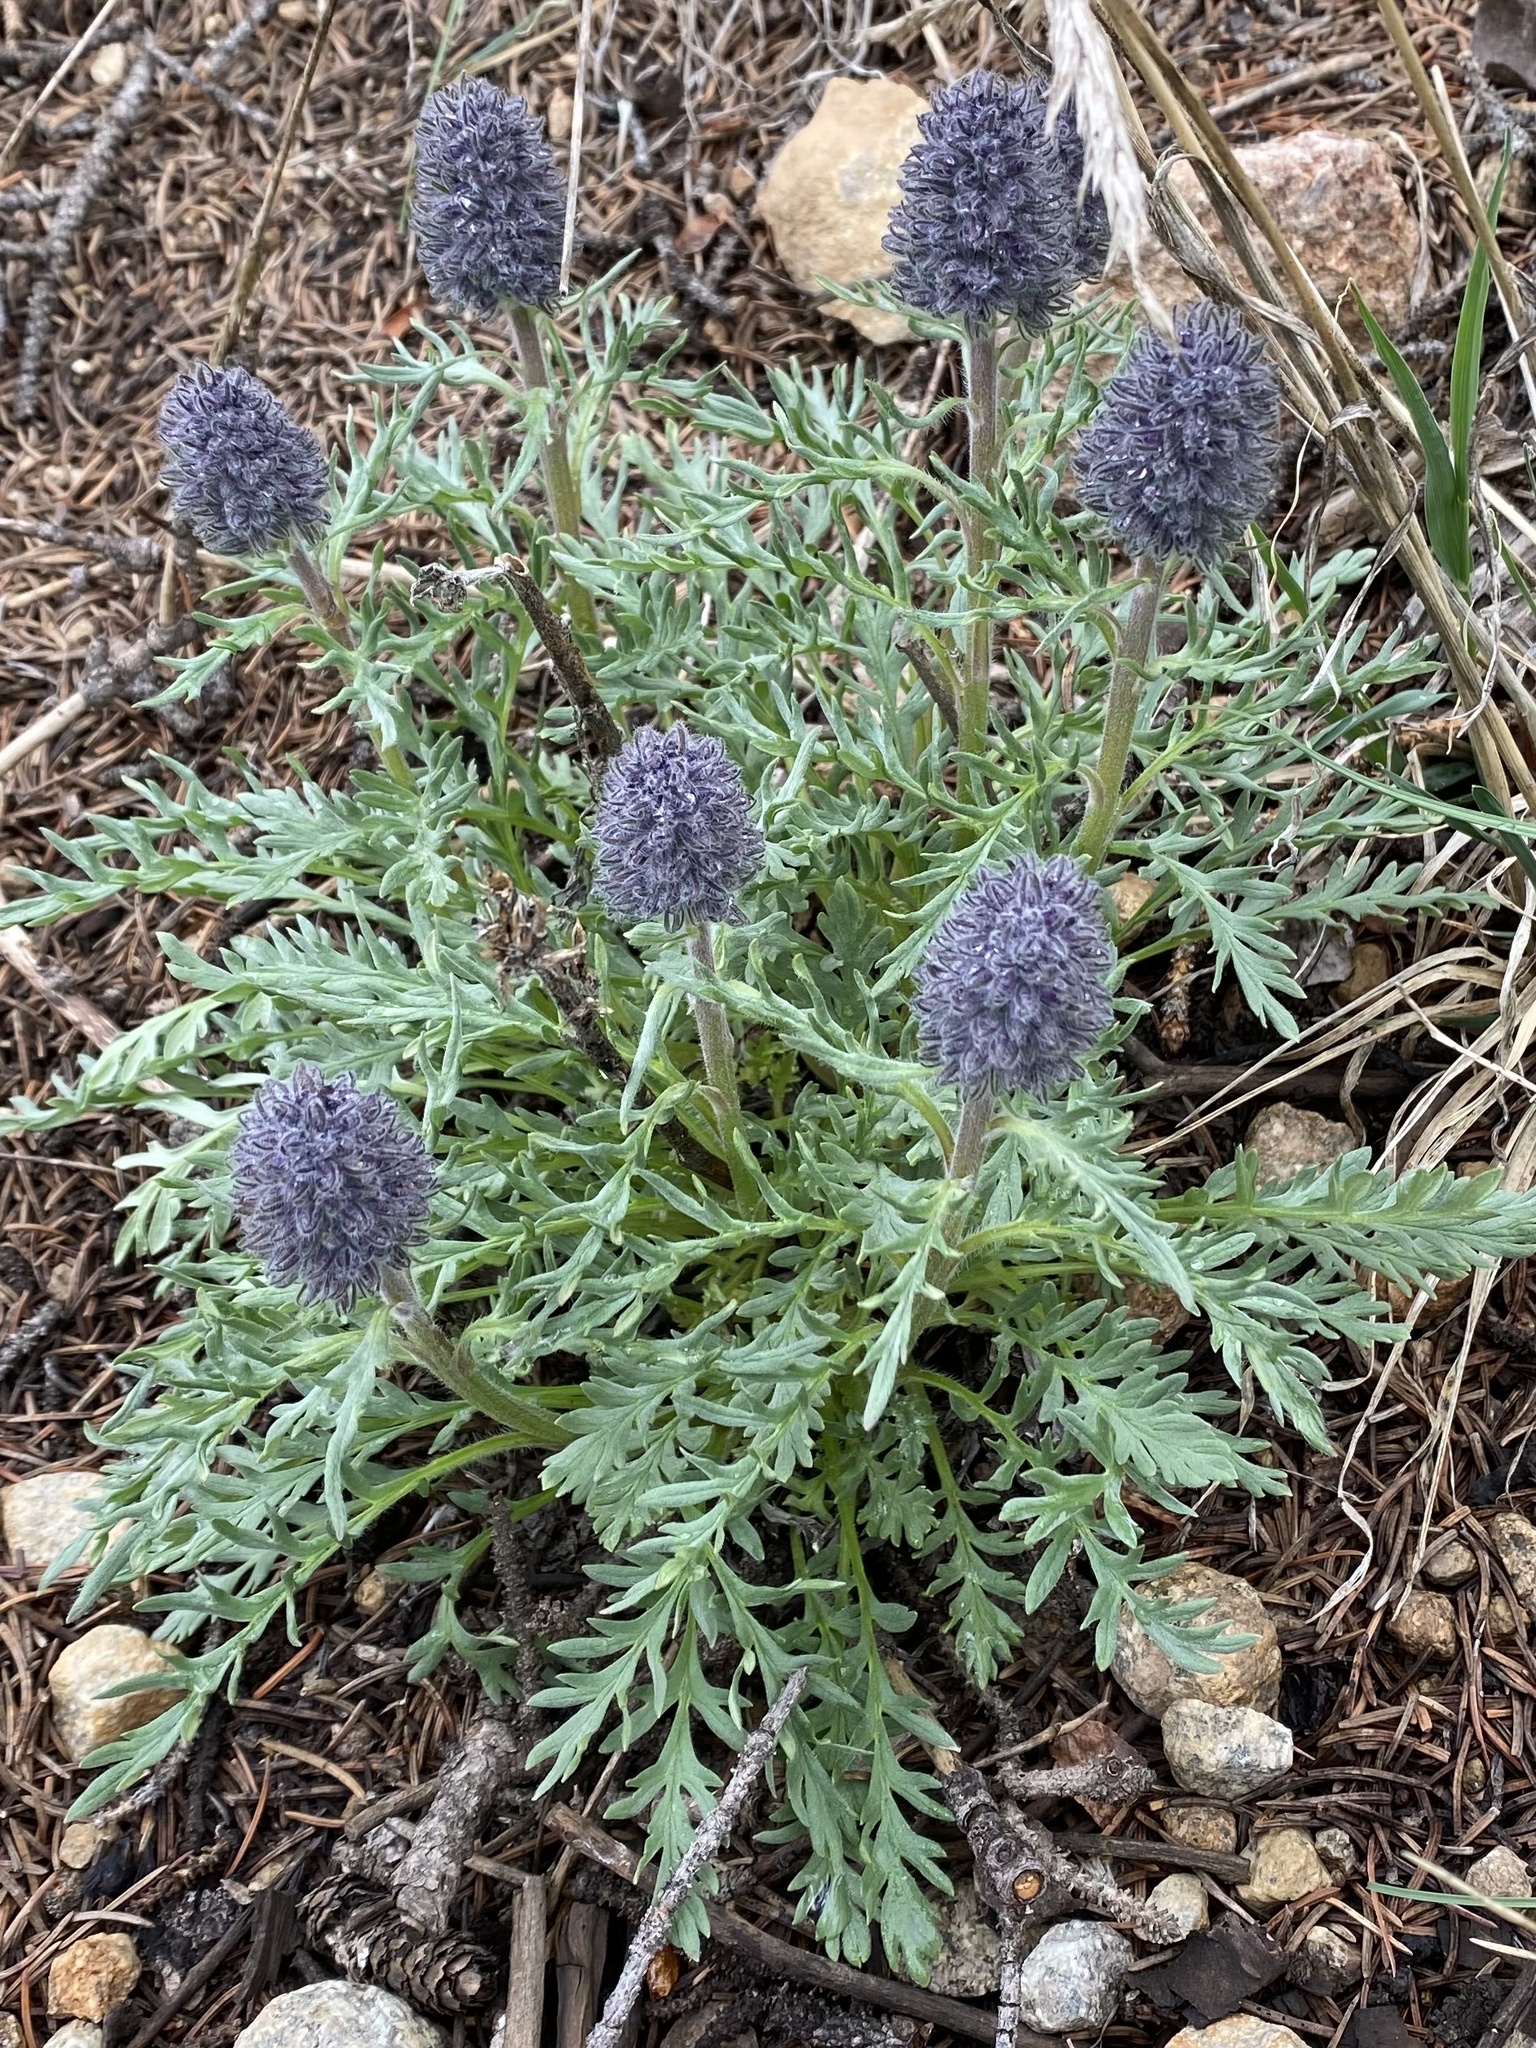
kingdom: Plantae
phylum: Tracheophyta
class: Magnoliopsida
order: Boraginales
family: Hydrophyllaceae
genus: Phacelia
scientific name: Phacelia sericea
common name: Silky phacelia
